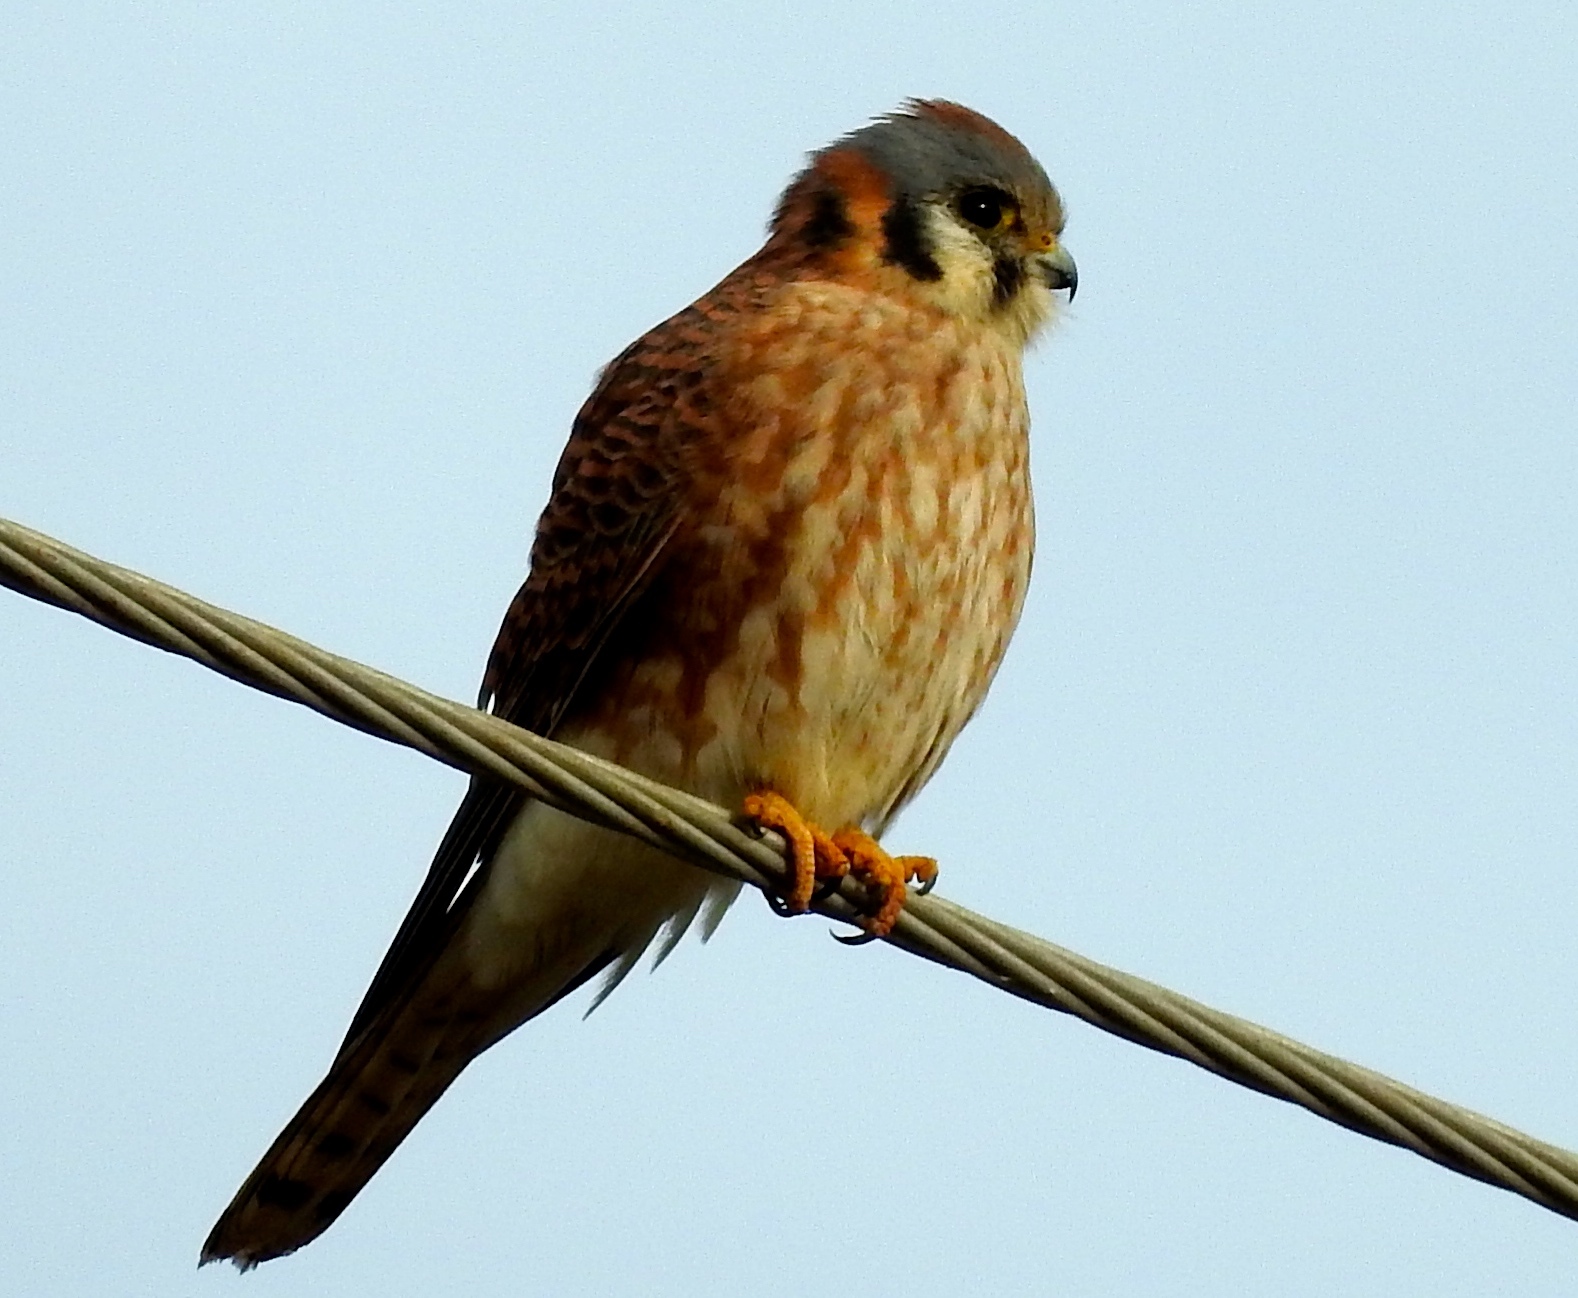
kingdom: Animalia
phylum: Chordata
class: Aves
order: Falconiformes
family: Falconidae
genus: Falco
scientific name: Falco sparverius
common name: American kestrel
